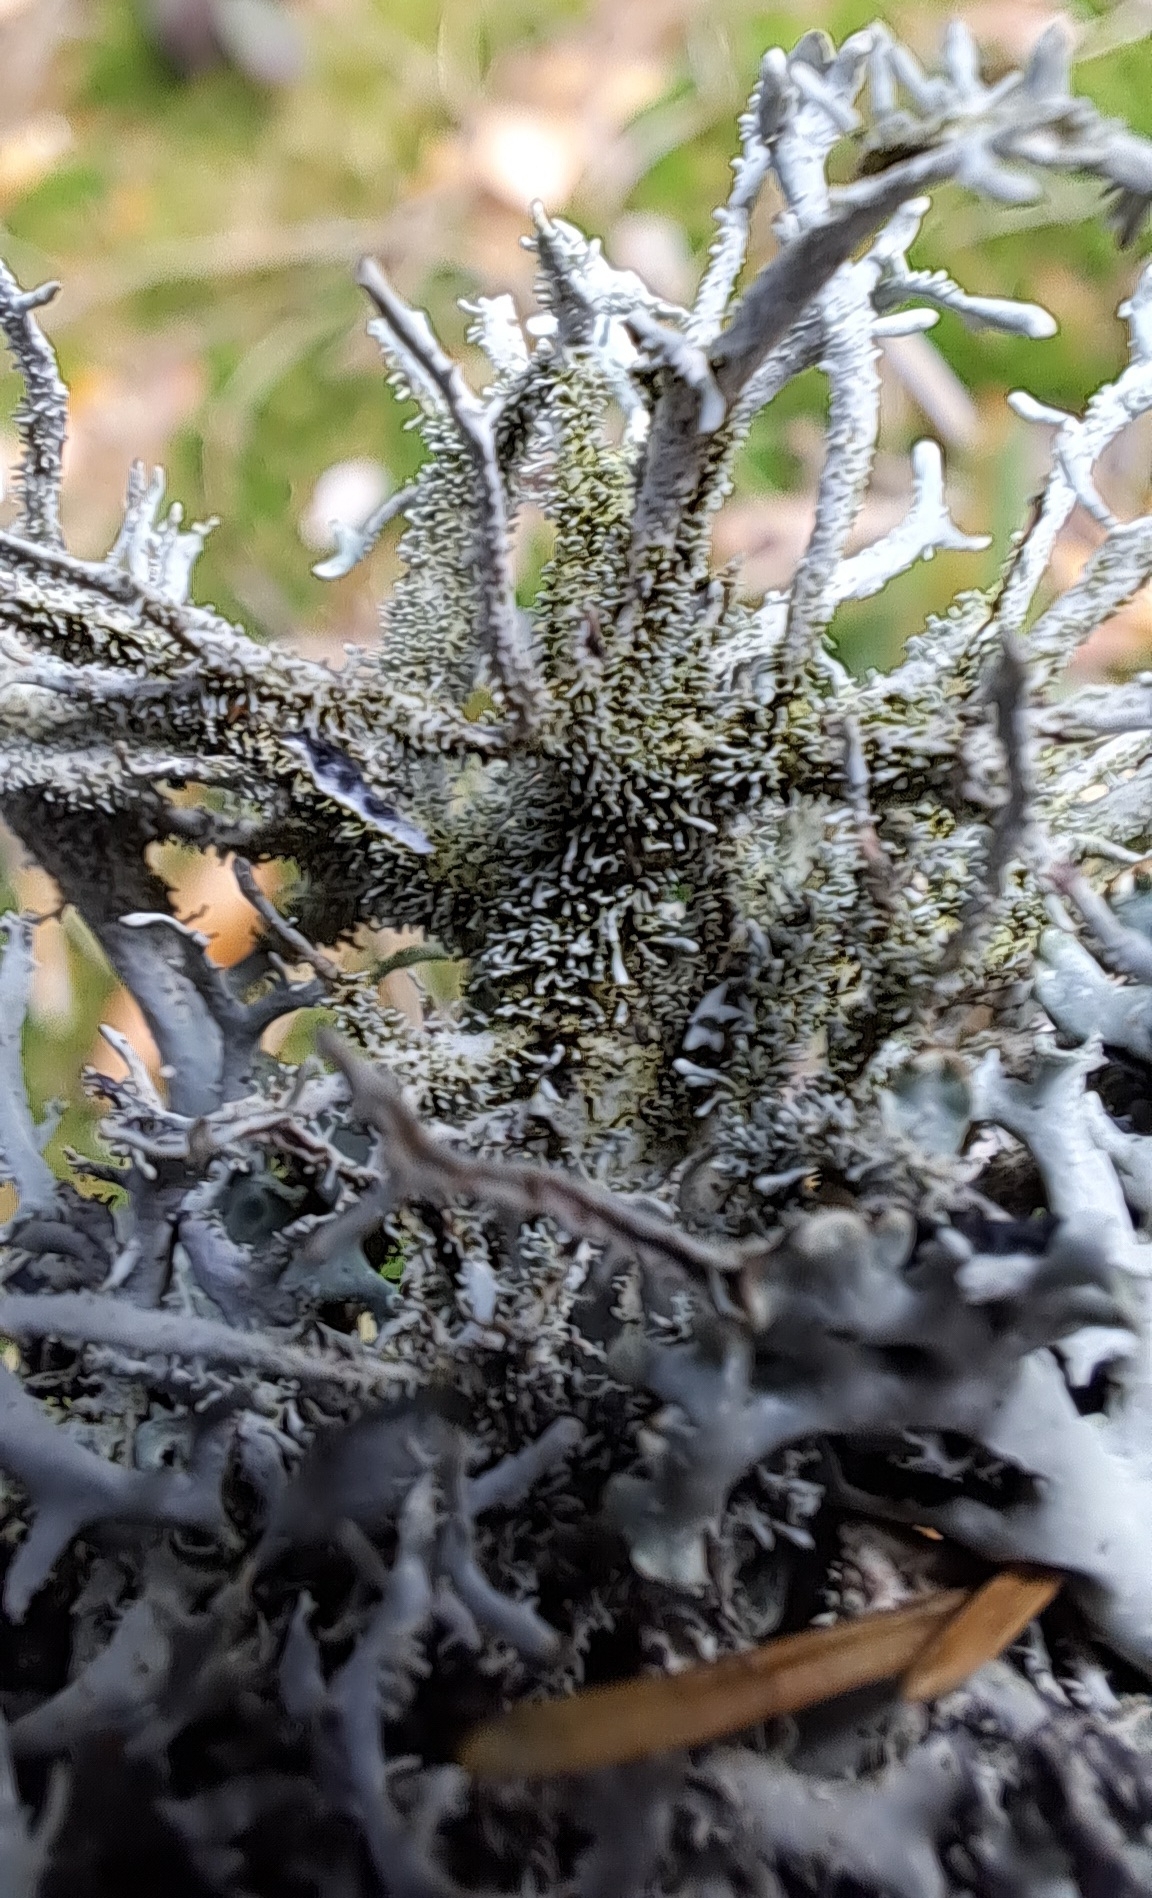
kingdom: Fungi
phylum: Ascomycota
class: Lecanoromycetes
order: Lecanorales
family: Parmeliaceae
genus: Pseudevernia
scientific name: Pseudevernia furfuracea
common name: Tree moss
